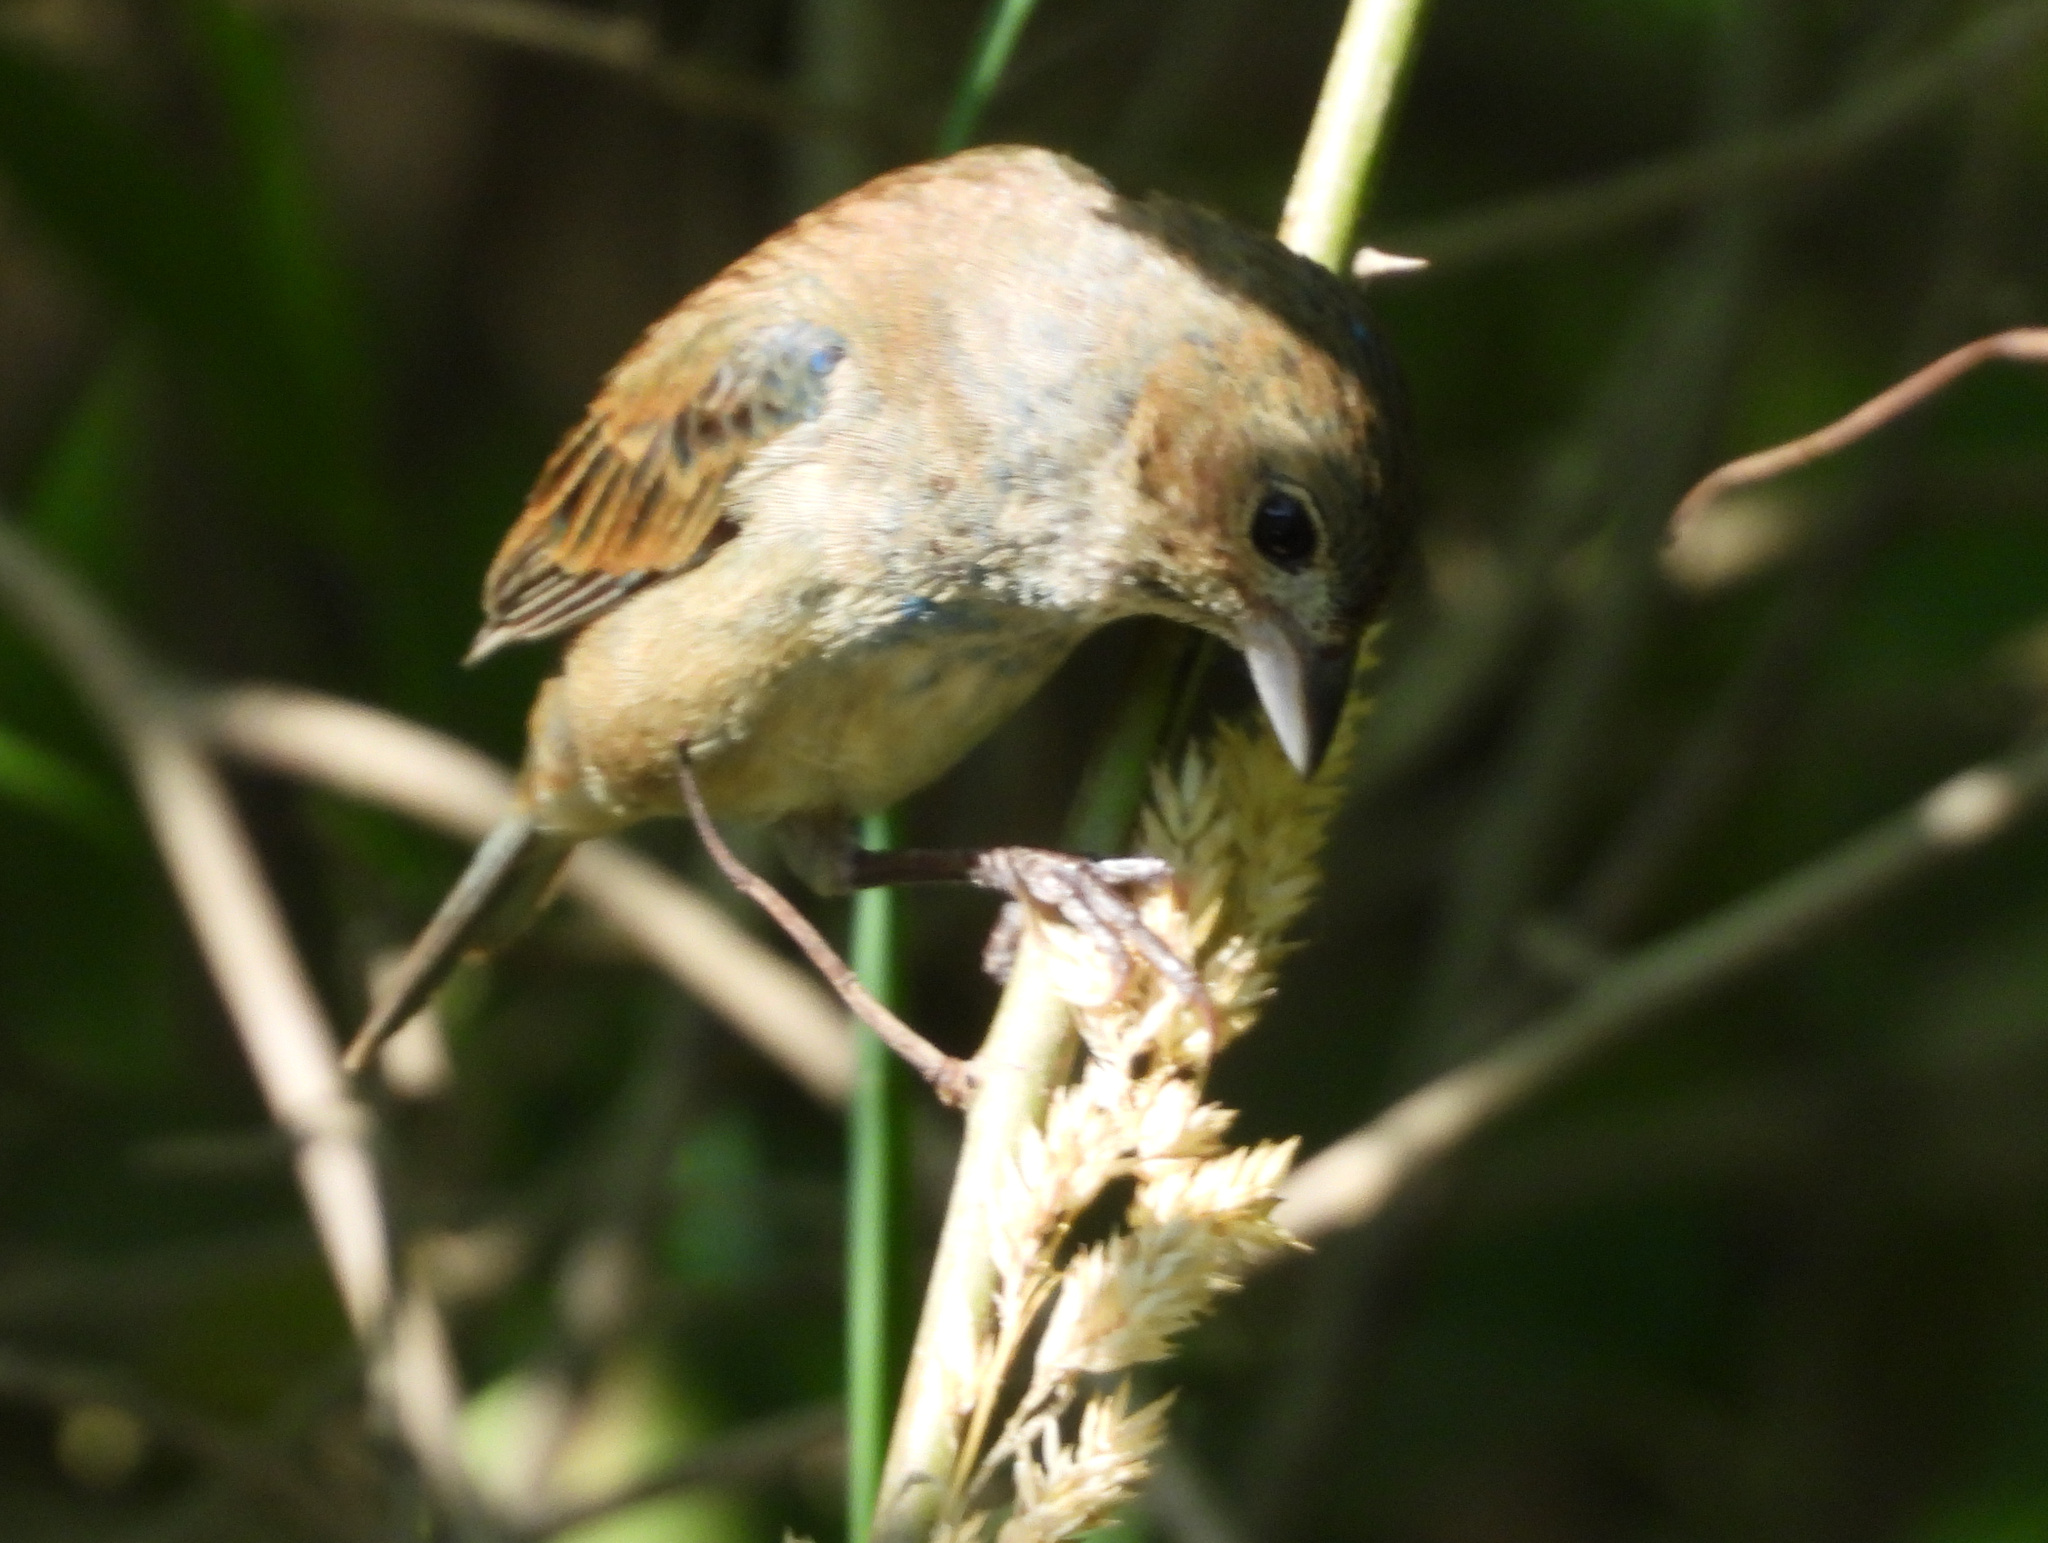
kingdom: Animalia
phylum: Chordata
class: Aves
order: Passeriformes
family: Cardinalidae
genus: Passerina
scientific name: Passerina cyanea
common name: Indigo bunting
